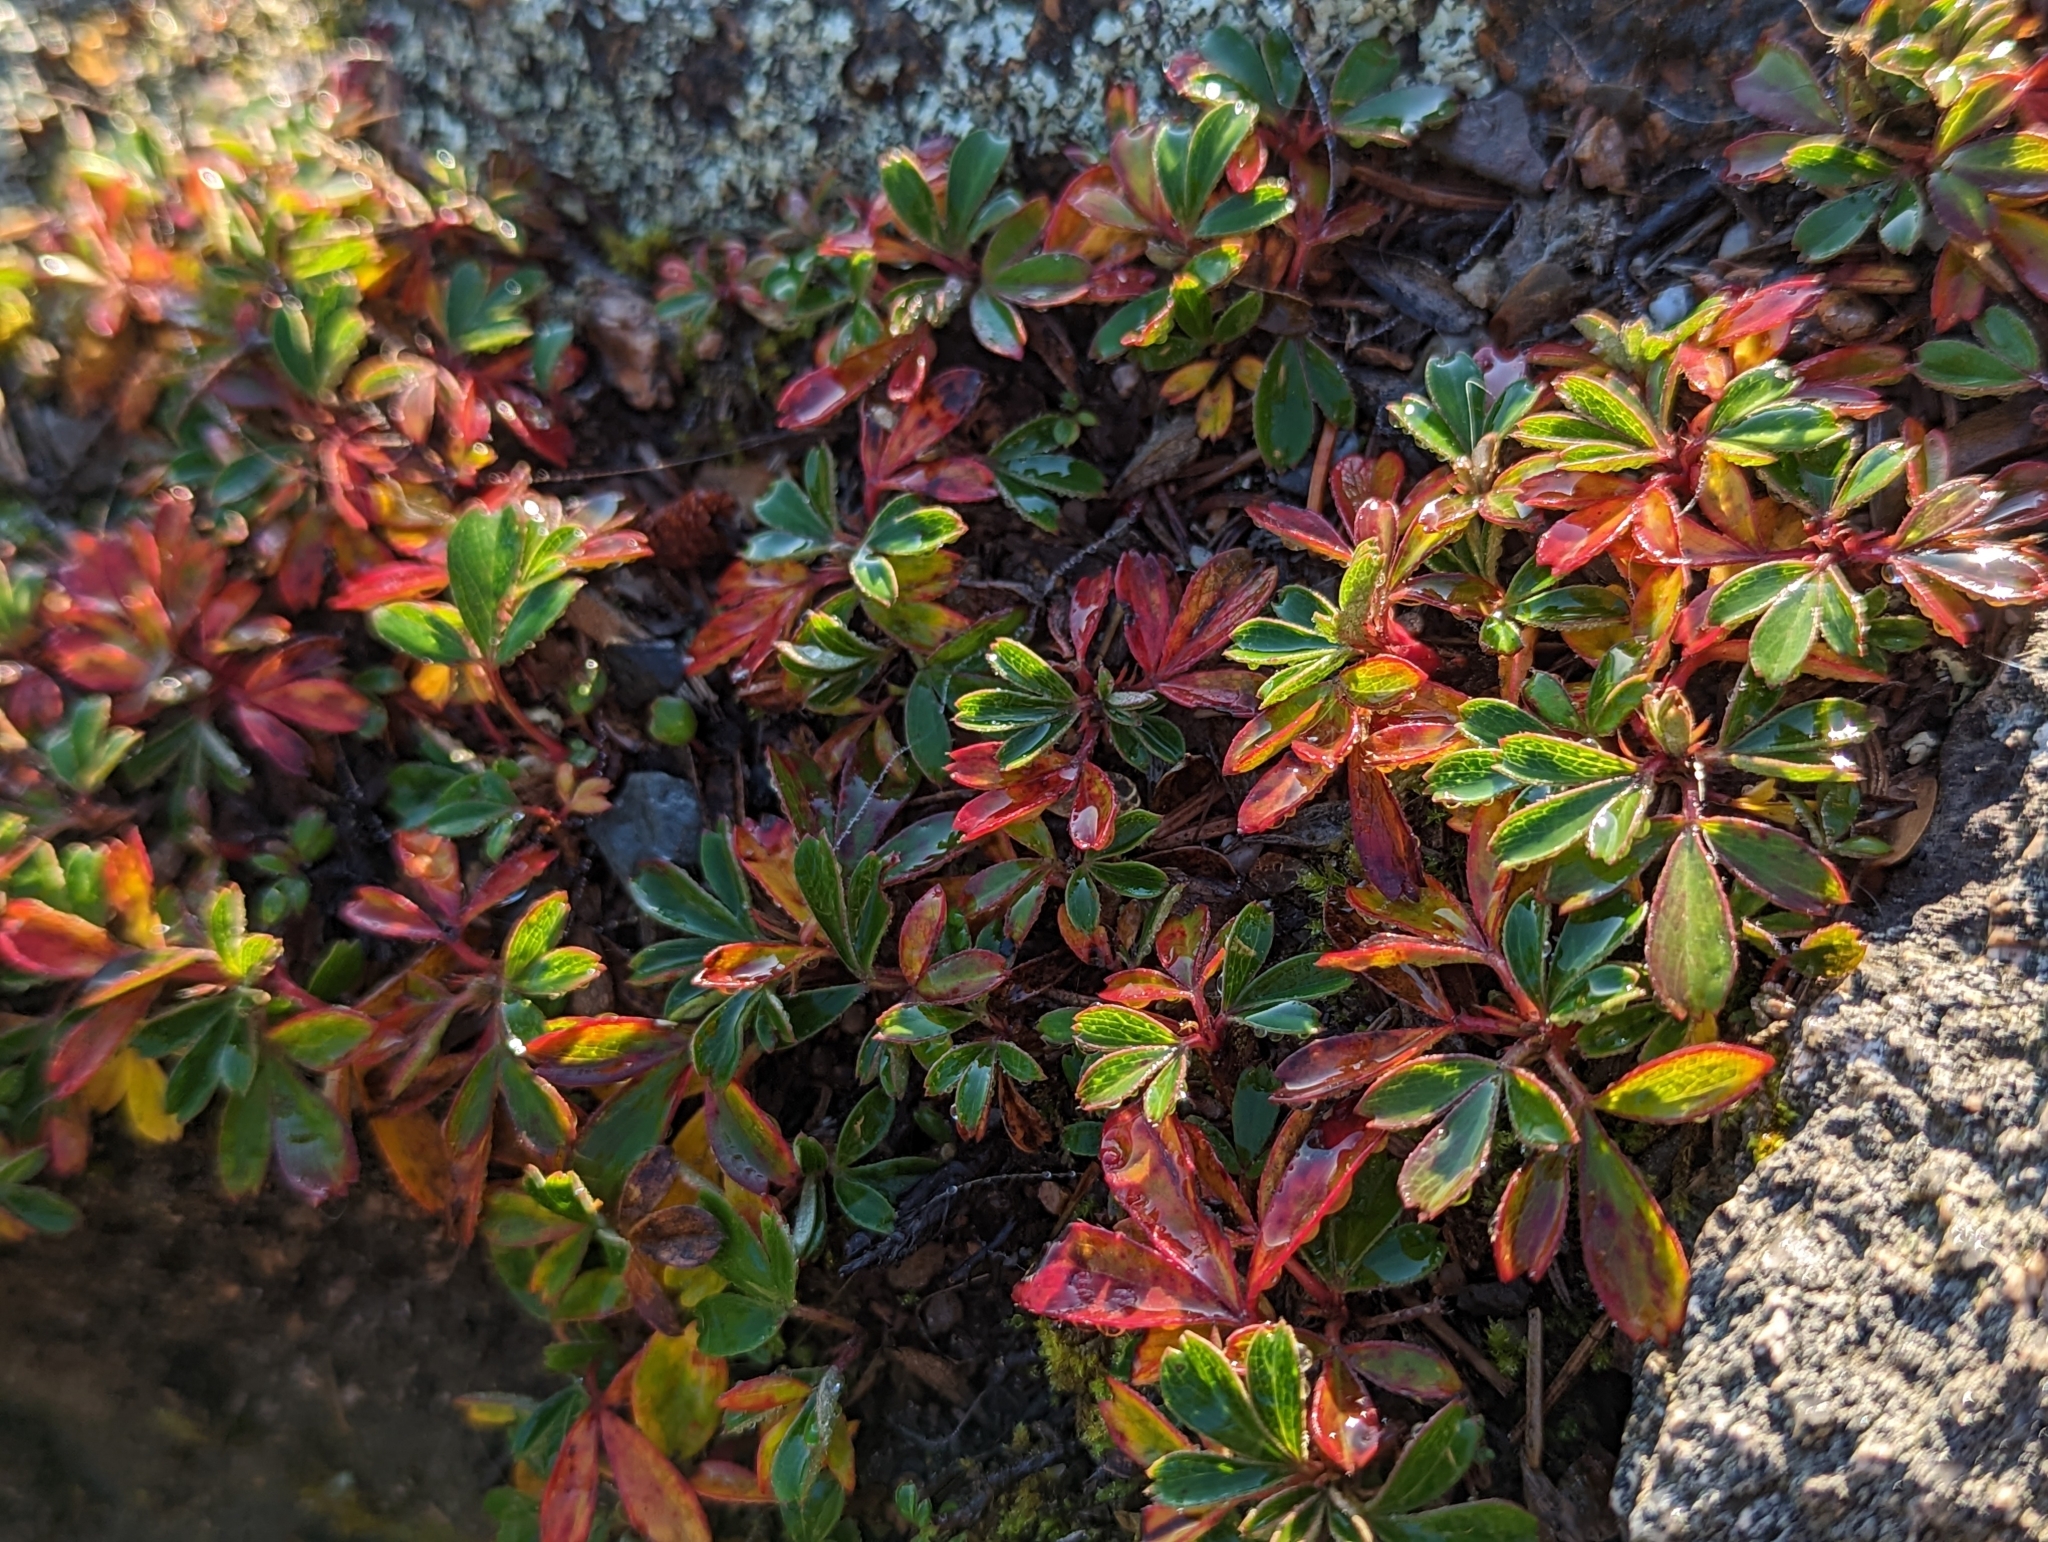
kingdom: Plantae
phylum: Tracheophyta
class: Magnoliopsida
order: Rosales
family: Rosaceae
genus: Sibbaldia
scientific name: Sibbaldia tridentata
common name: Three-toothed cinquefoil
